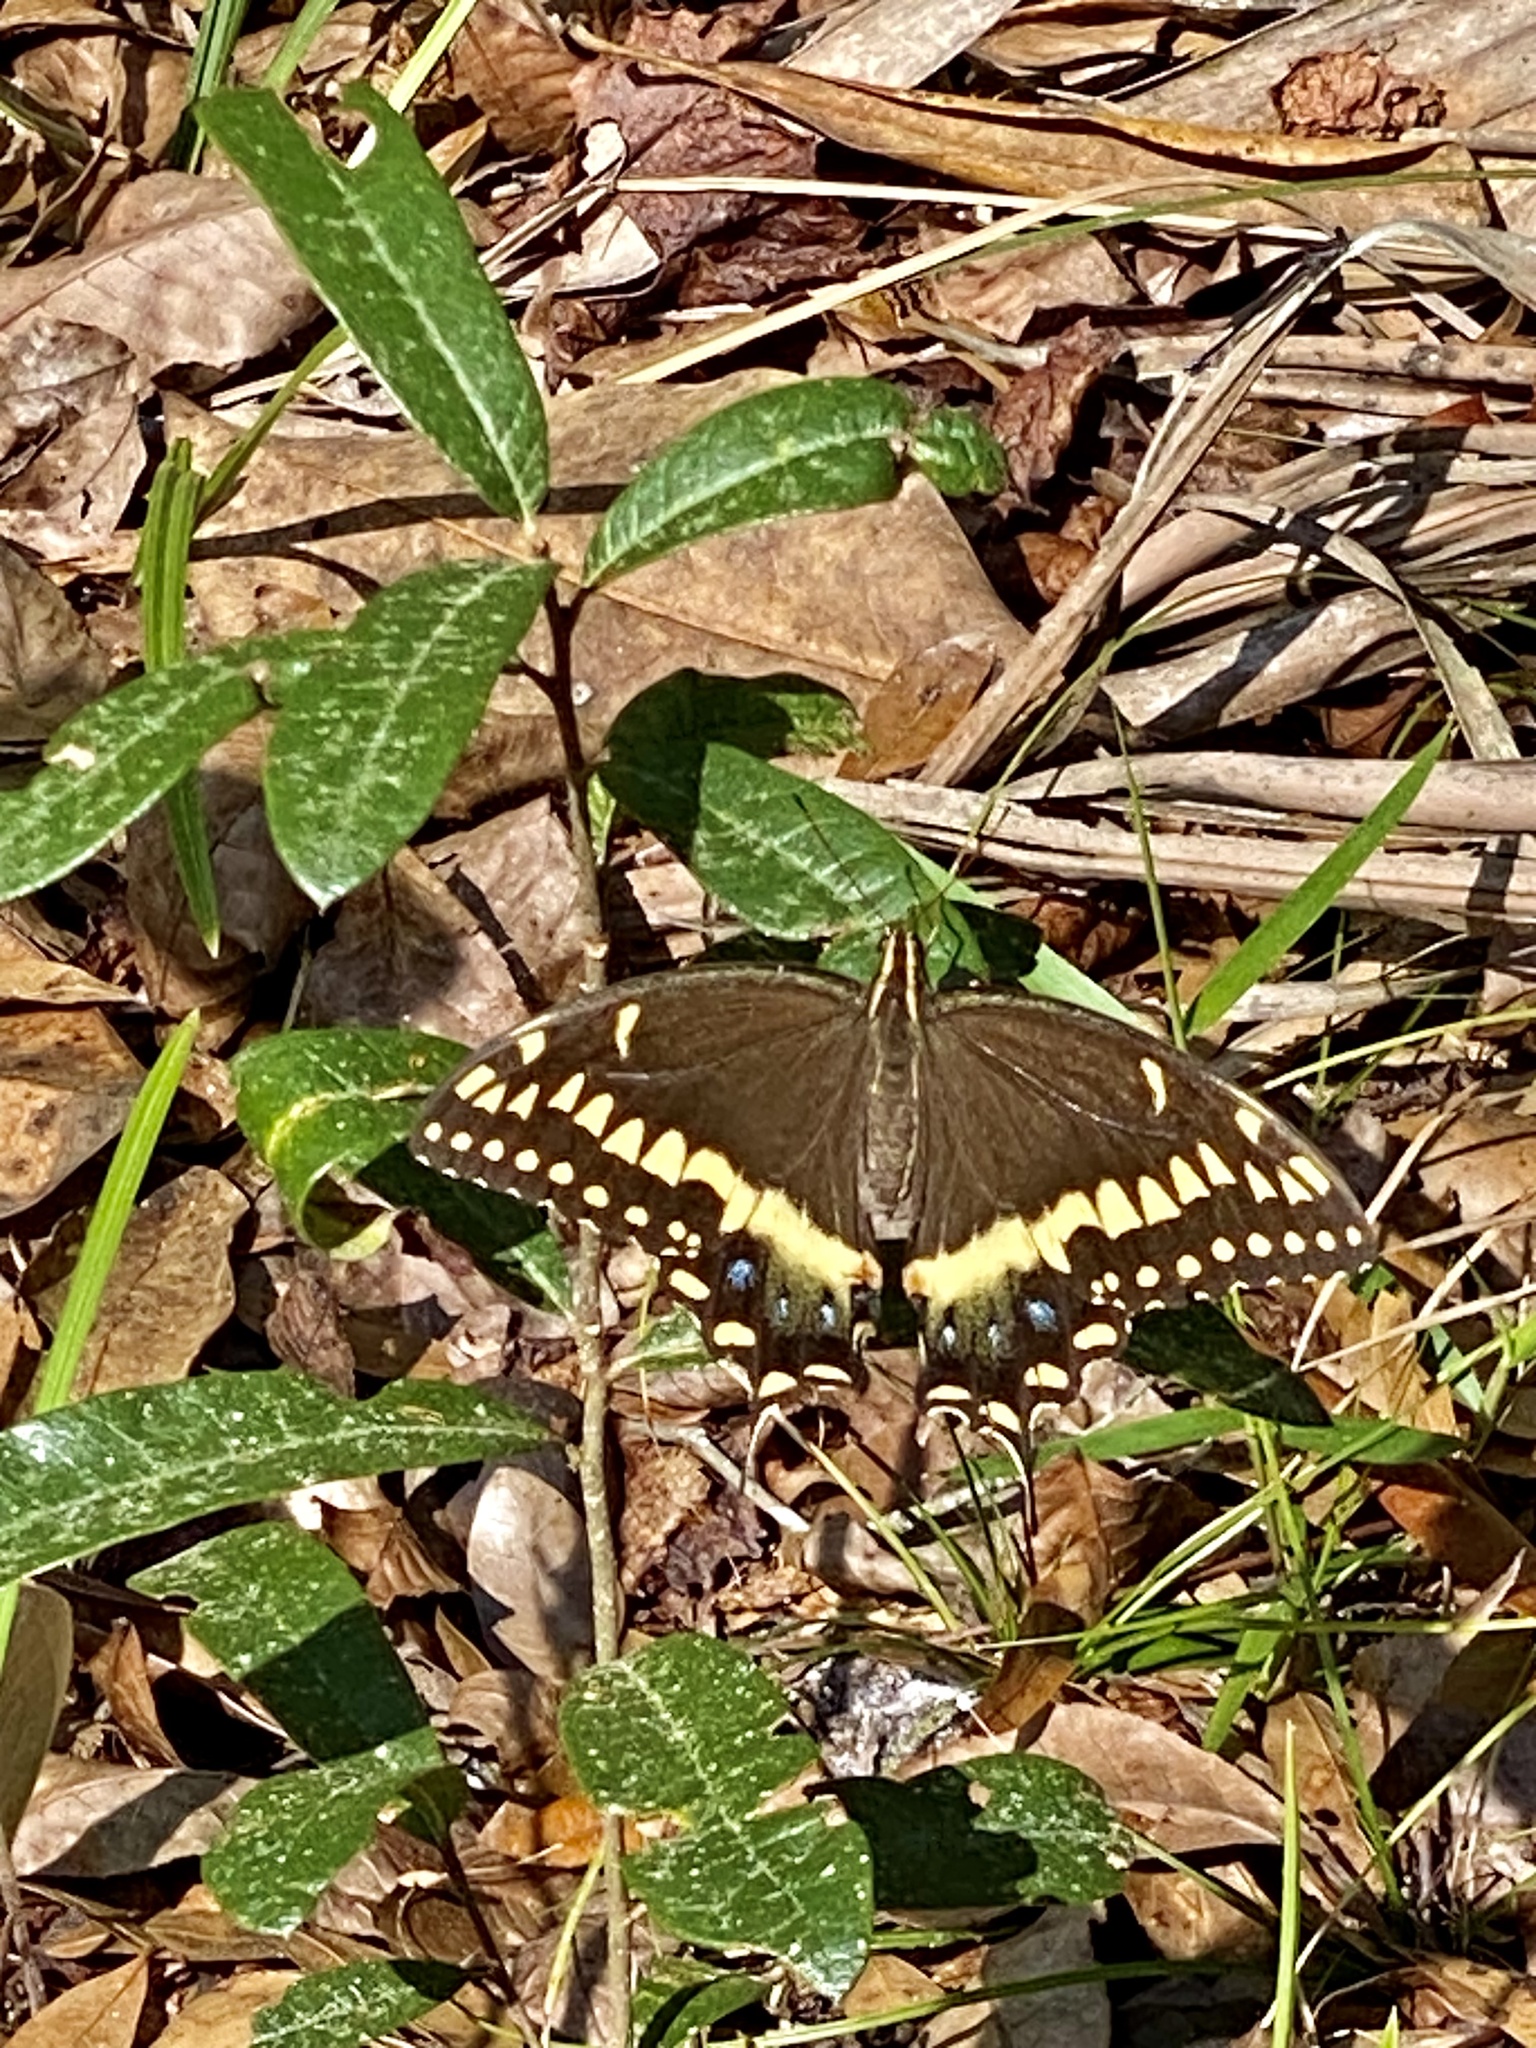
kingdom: Animalia
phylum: Arthropoda
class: Insecta
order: Lepidoptera
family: Papilionidae
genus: Papilio
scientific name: Papilio palamedes
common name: Palamedes swallowtail
